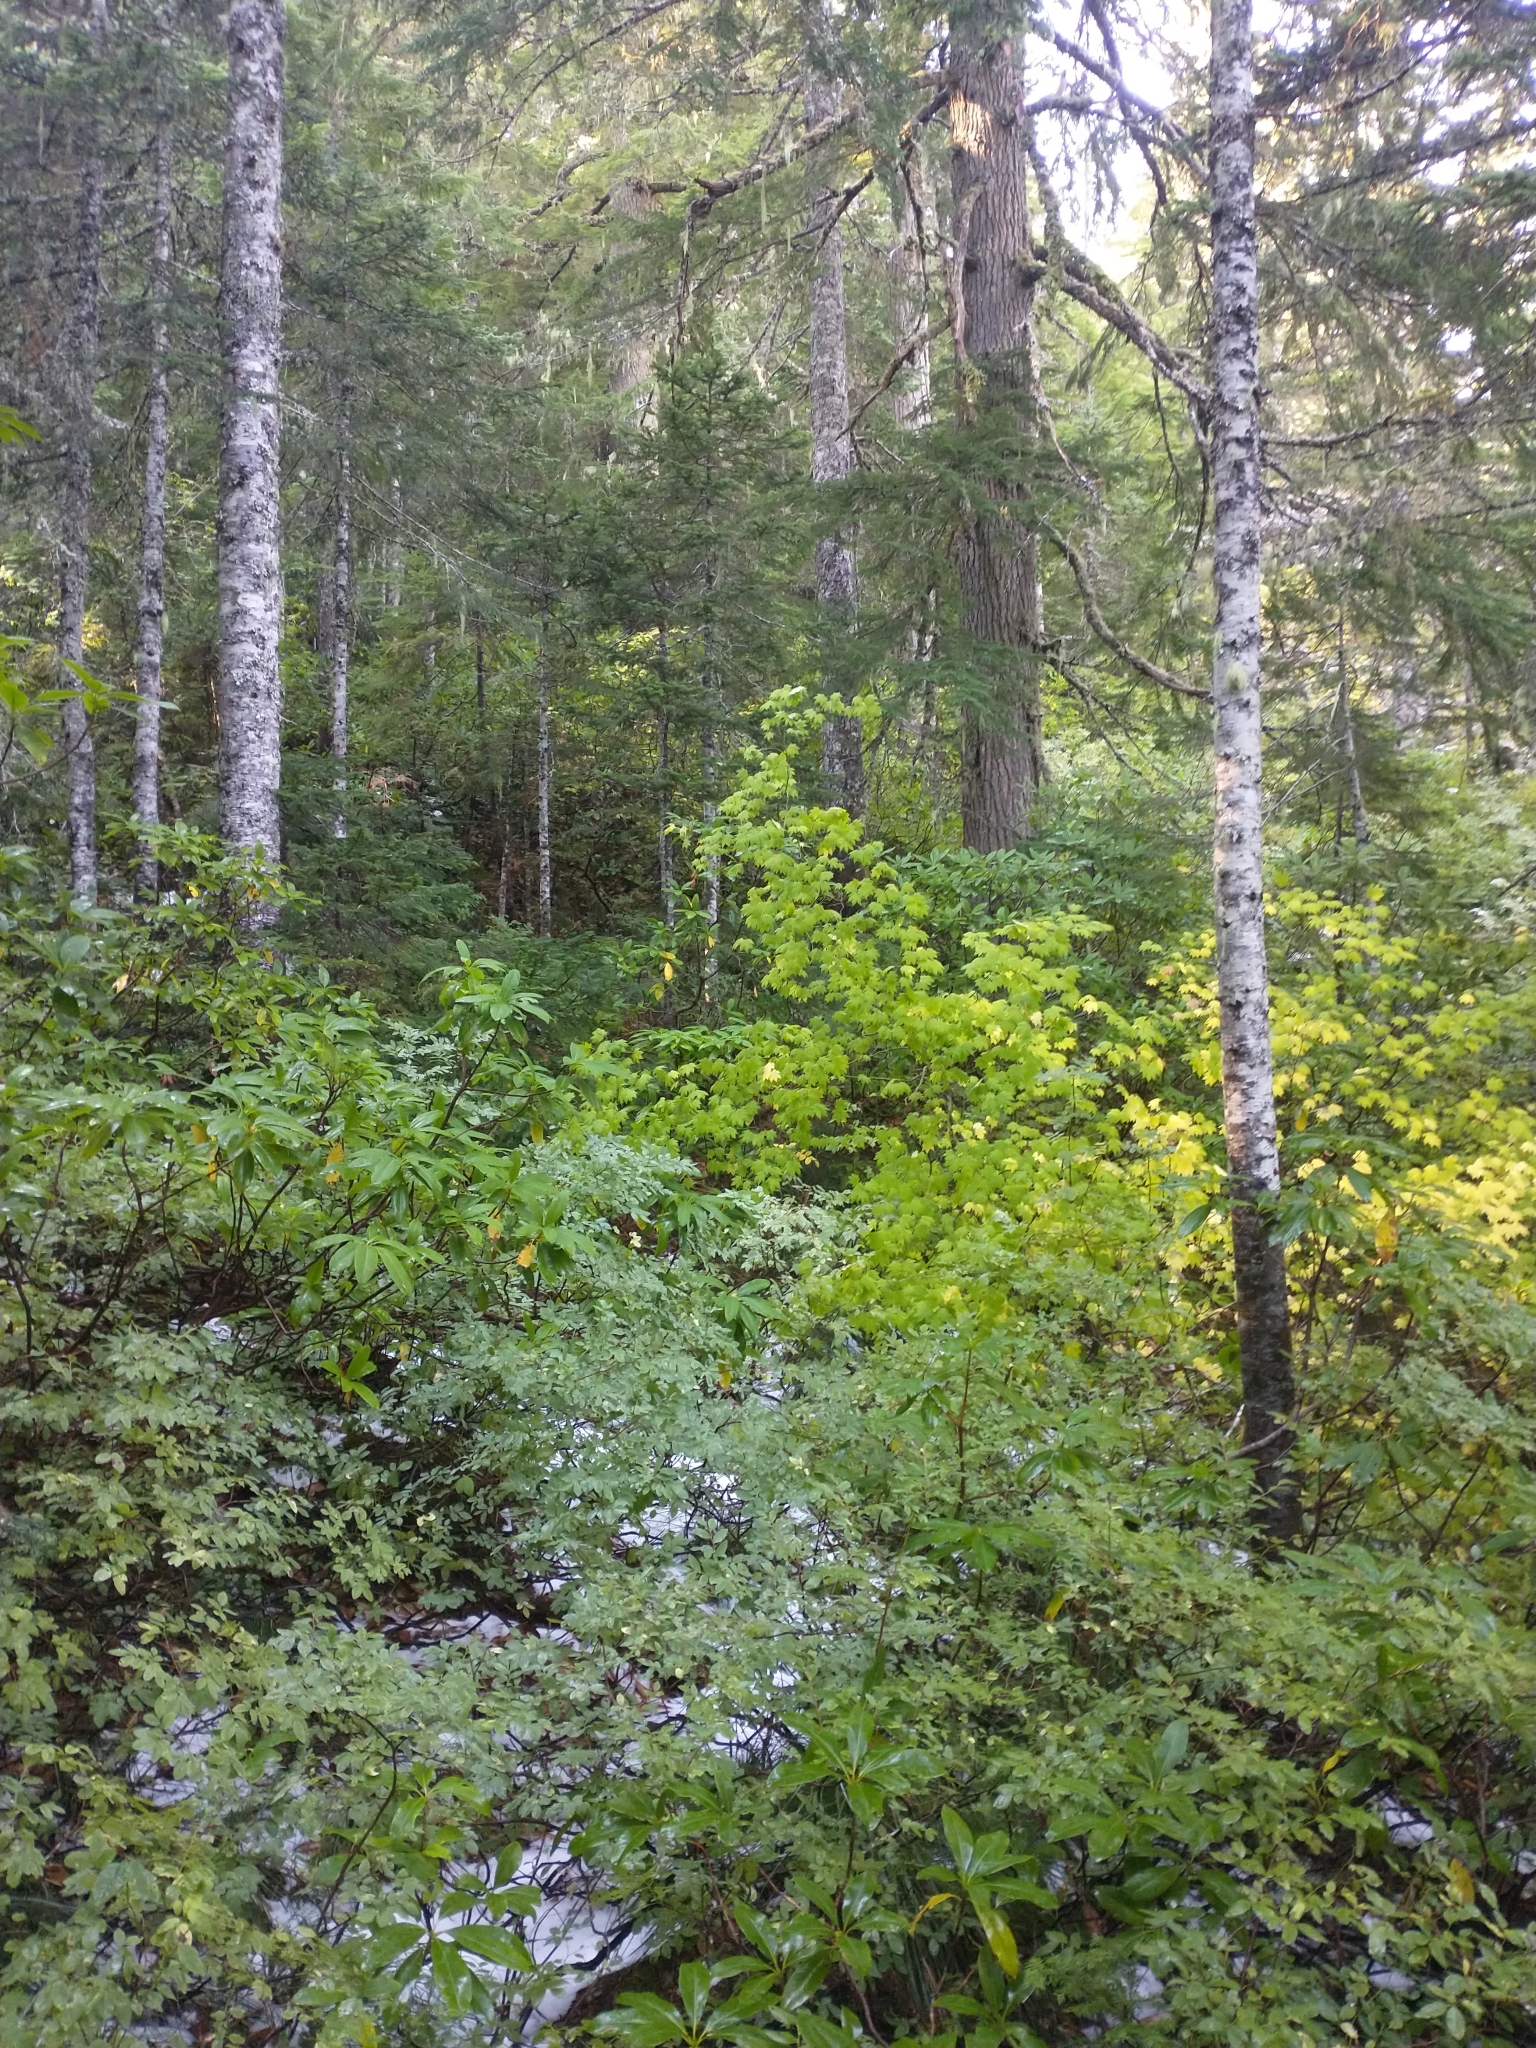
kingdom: Plantae
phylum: Tracheophyta
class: Magnoliopsida
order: Sapindales
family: Sapindaceae
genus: Acer
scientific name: Acer circinatum
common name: Vine maple
